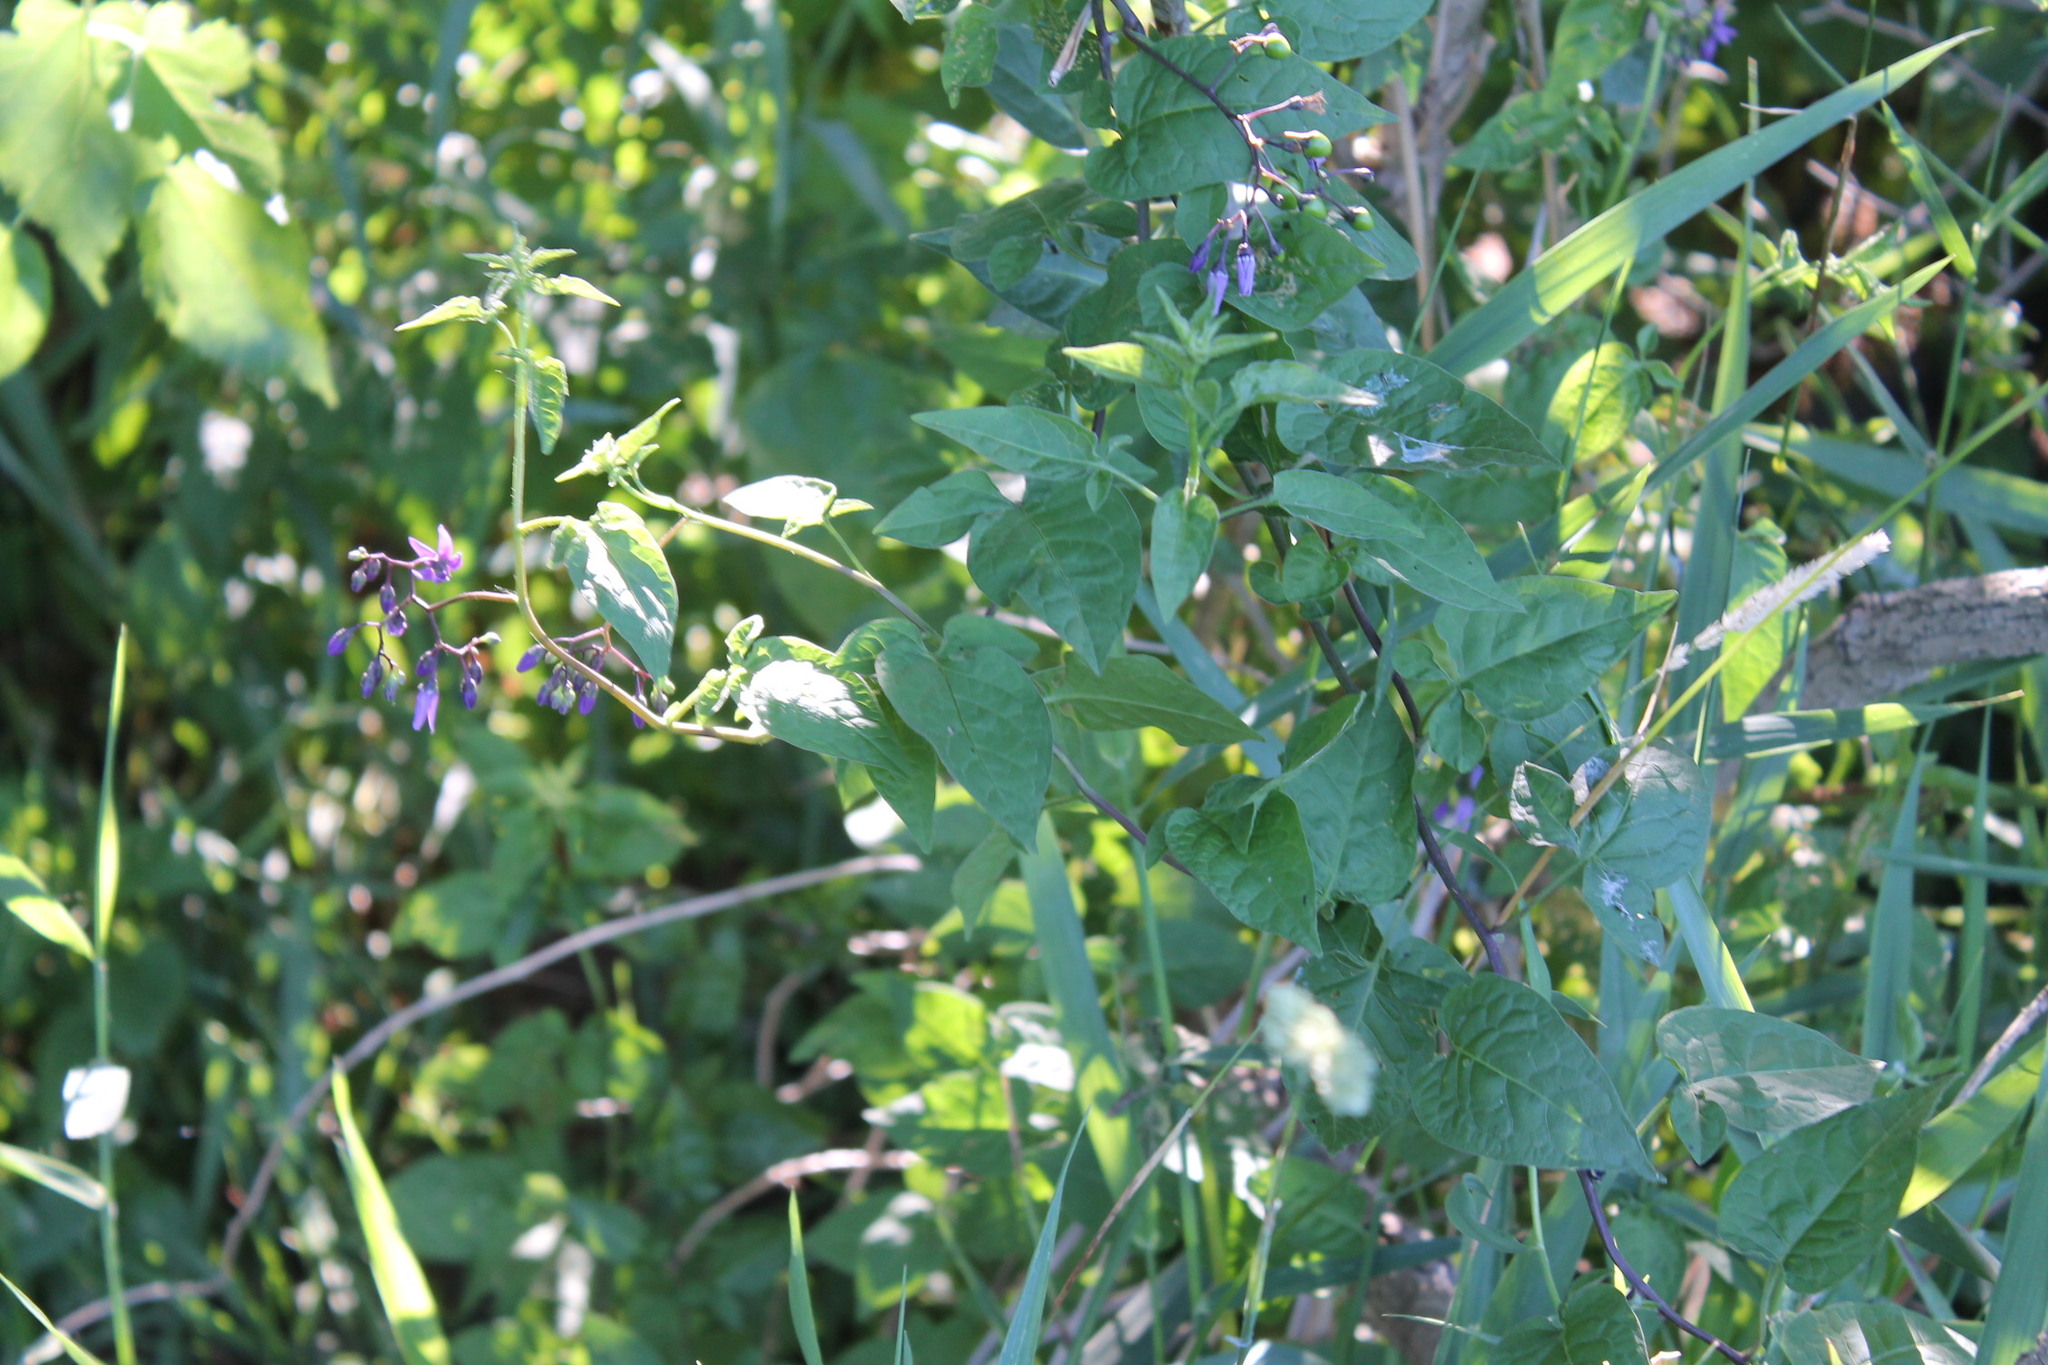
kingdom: Plantae
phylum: Tracheophyta
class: Magnoliopsida
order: Solanales
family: Solanaceae
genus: Solanum
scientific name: Solanum dulcamara
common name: Climbing nightshade
